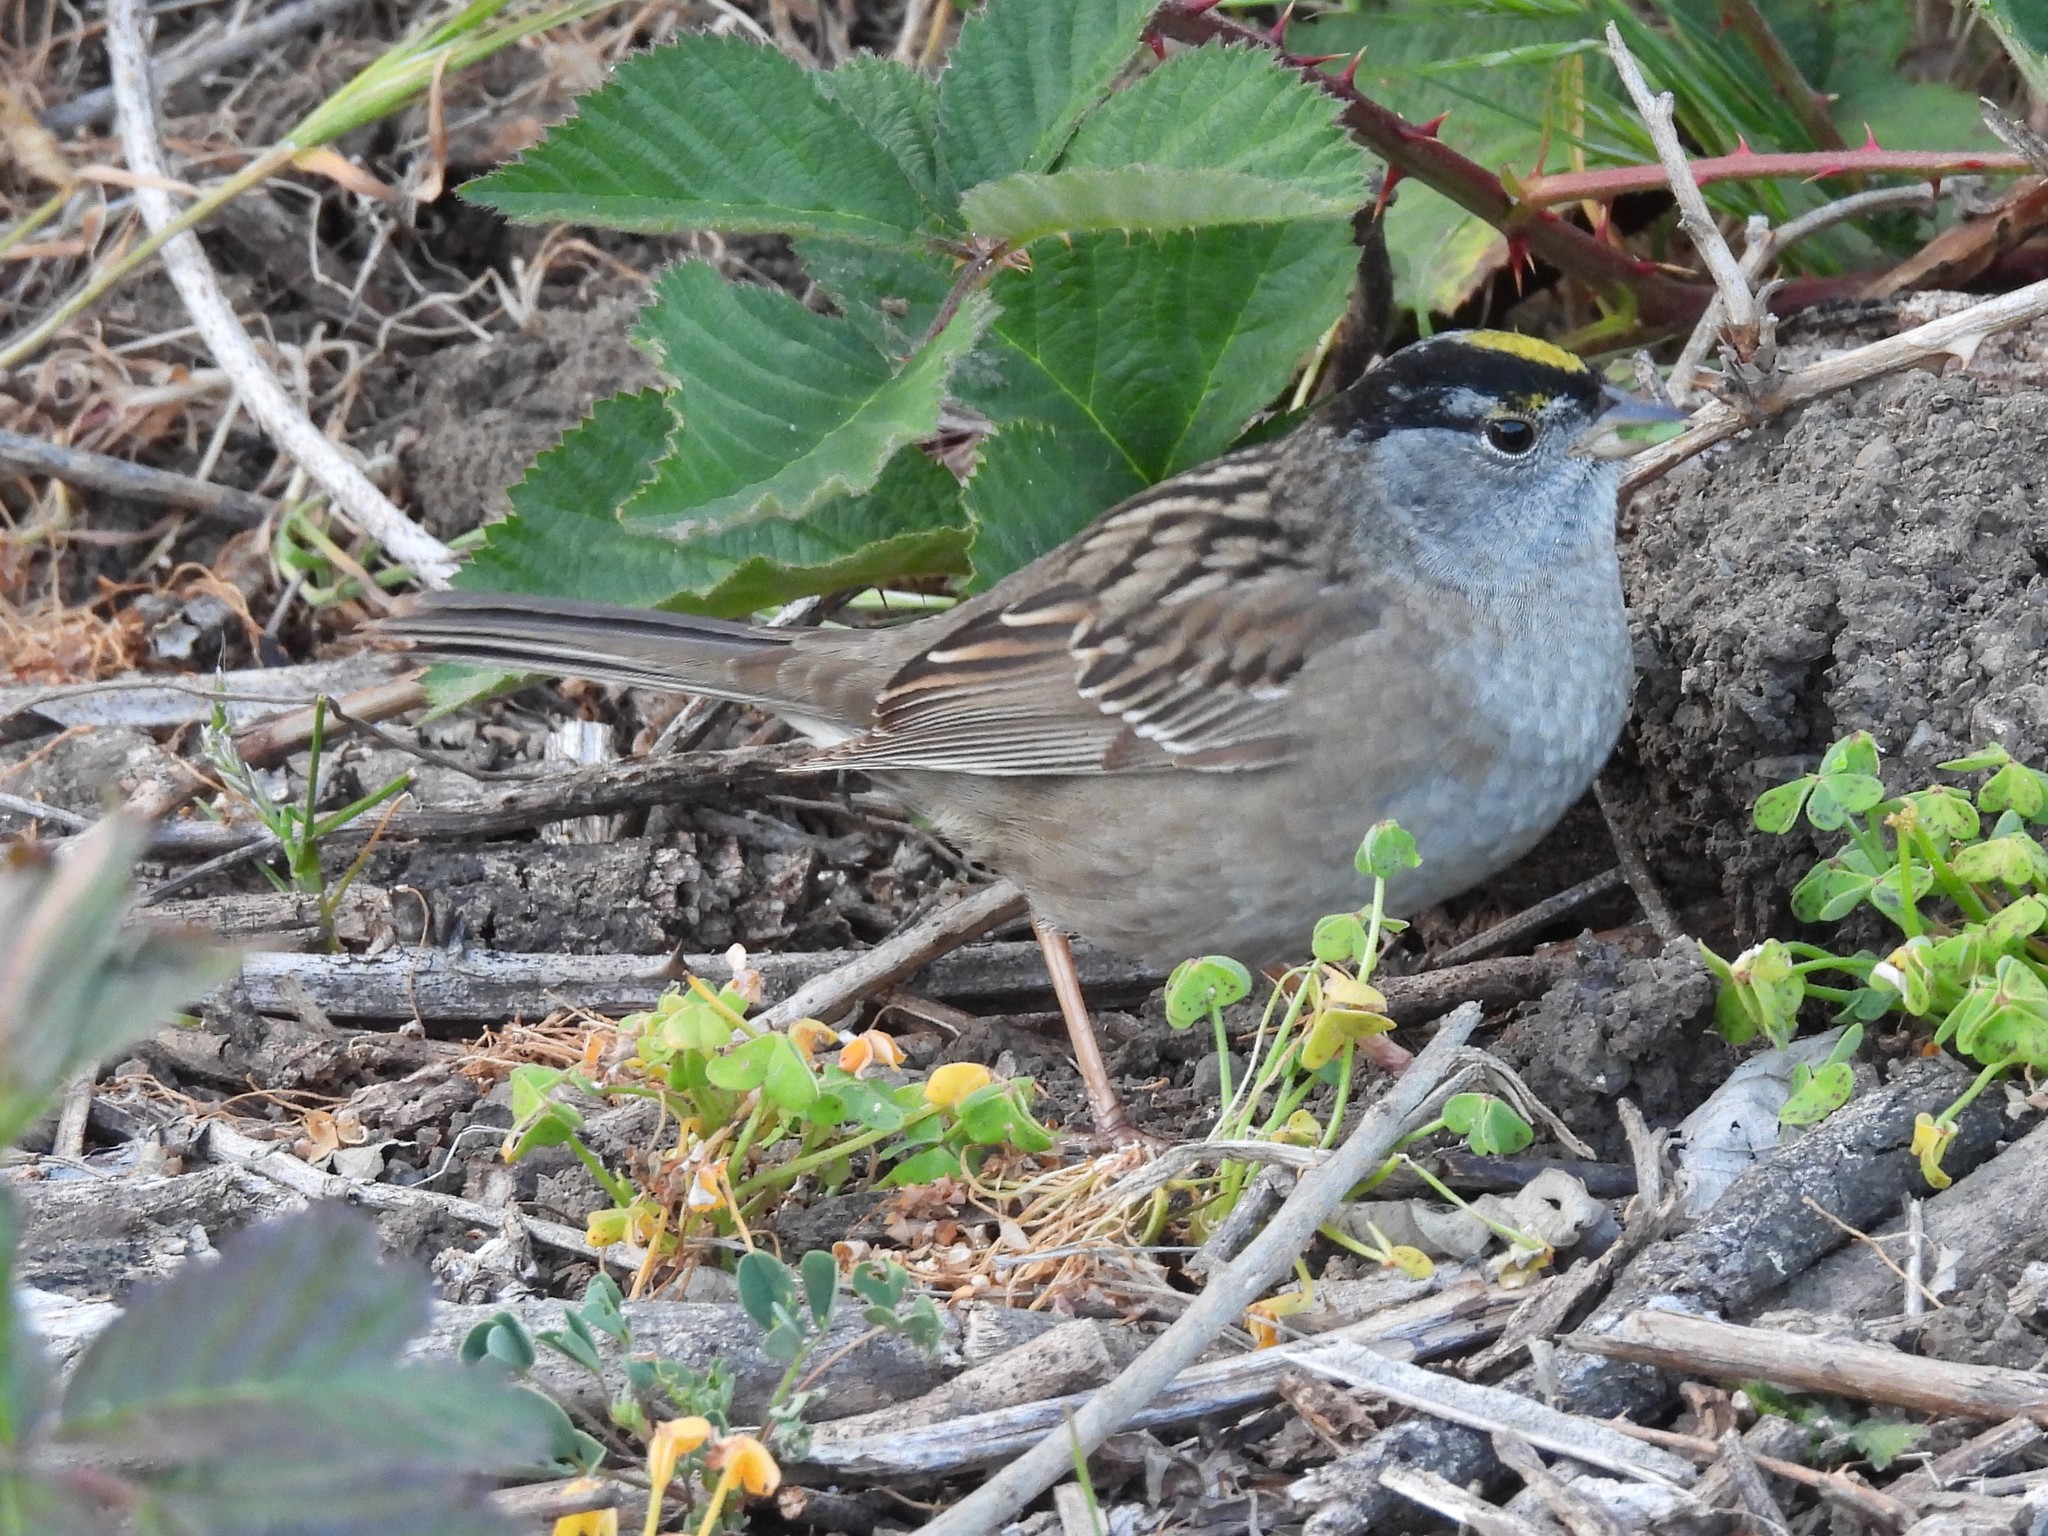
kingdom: Animalia
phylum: Chordata
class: Aves
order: Passeriformes
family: Passerellidae
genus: Zonotrichia
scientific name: Zonotrichia atricapilla
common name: Golden-crowned sparrow
